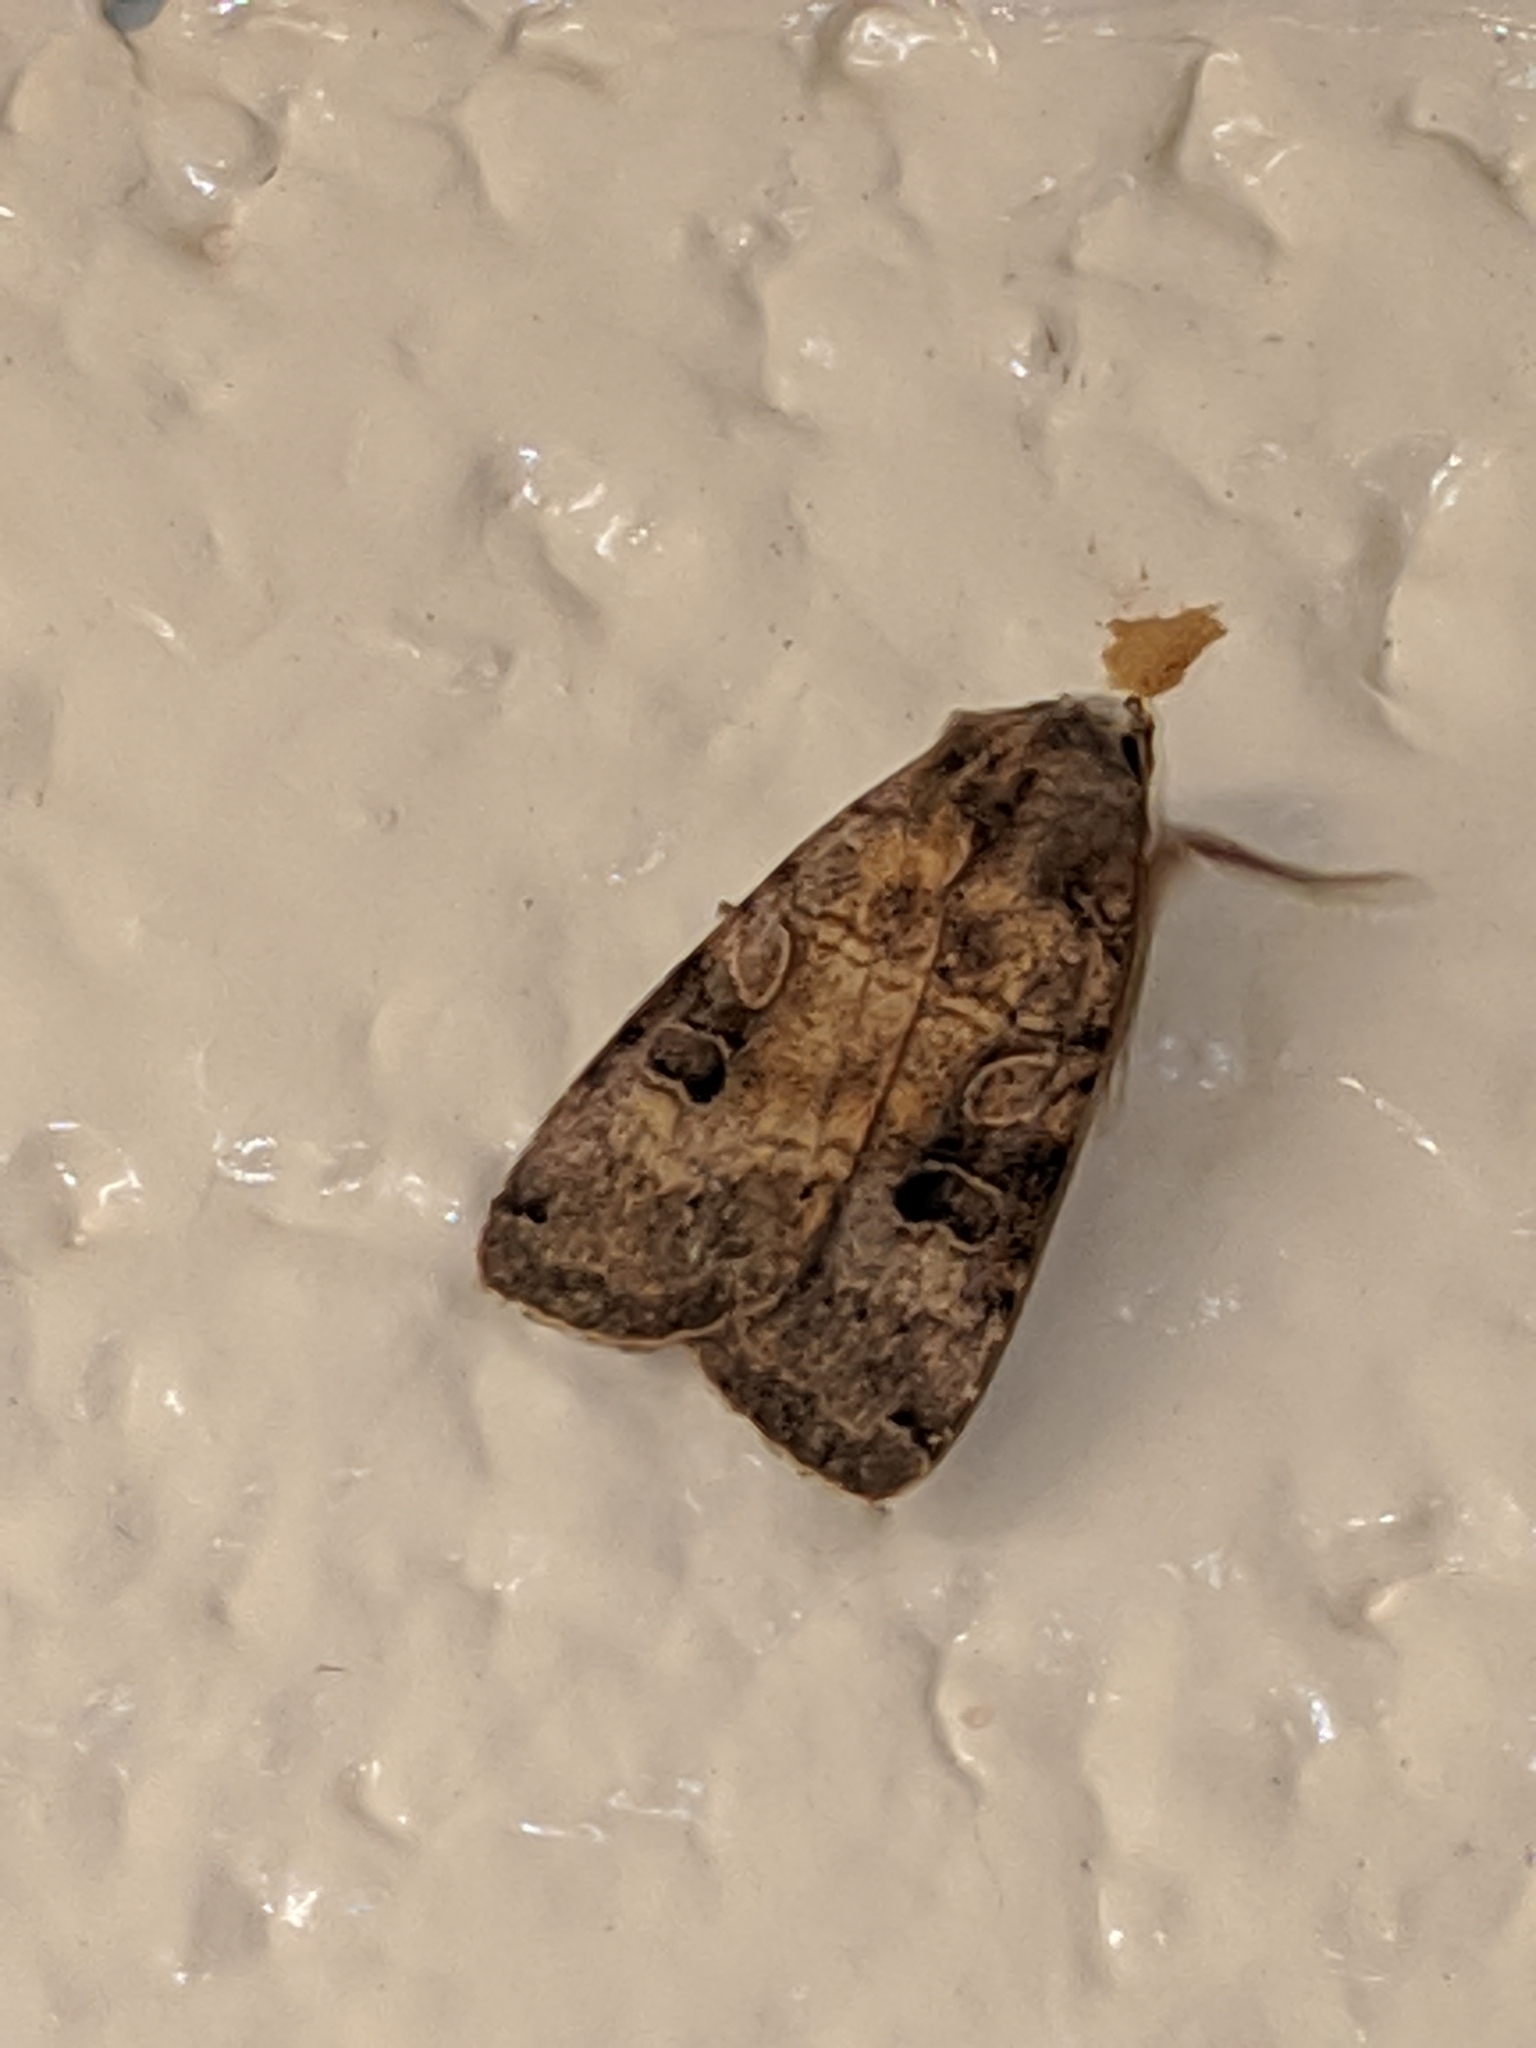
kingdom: Animalia
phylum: Arthropoda
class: Insecta
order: Lepidoptera
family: Noctuidae
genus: Xestia
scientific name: Xestia smithii
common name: Smith's dart
